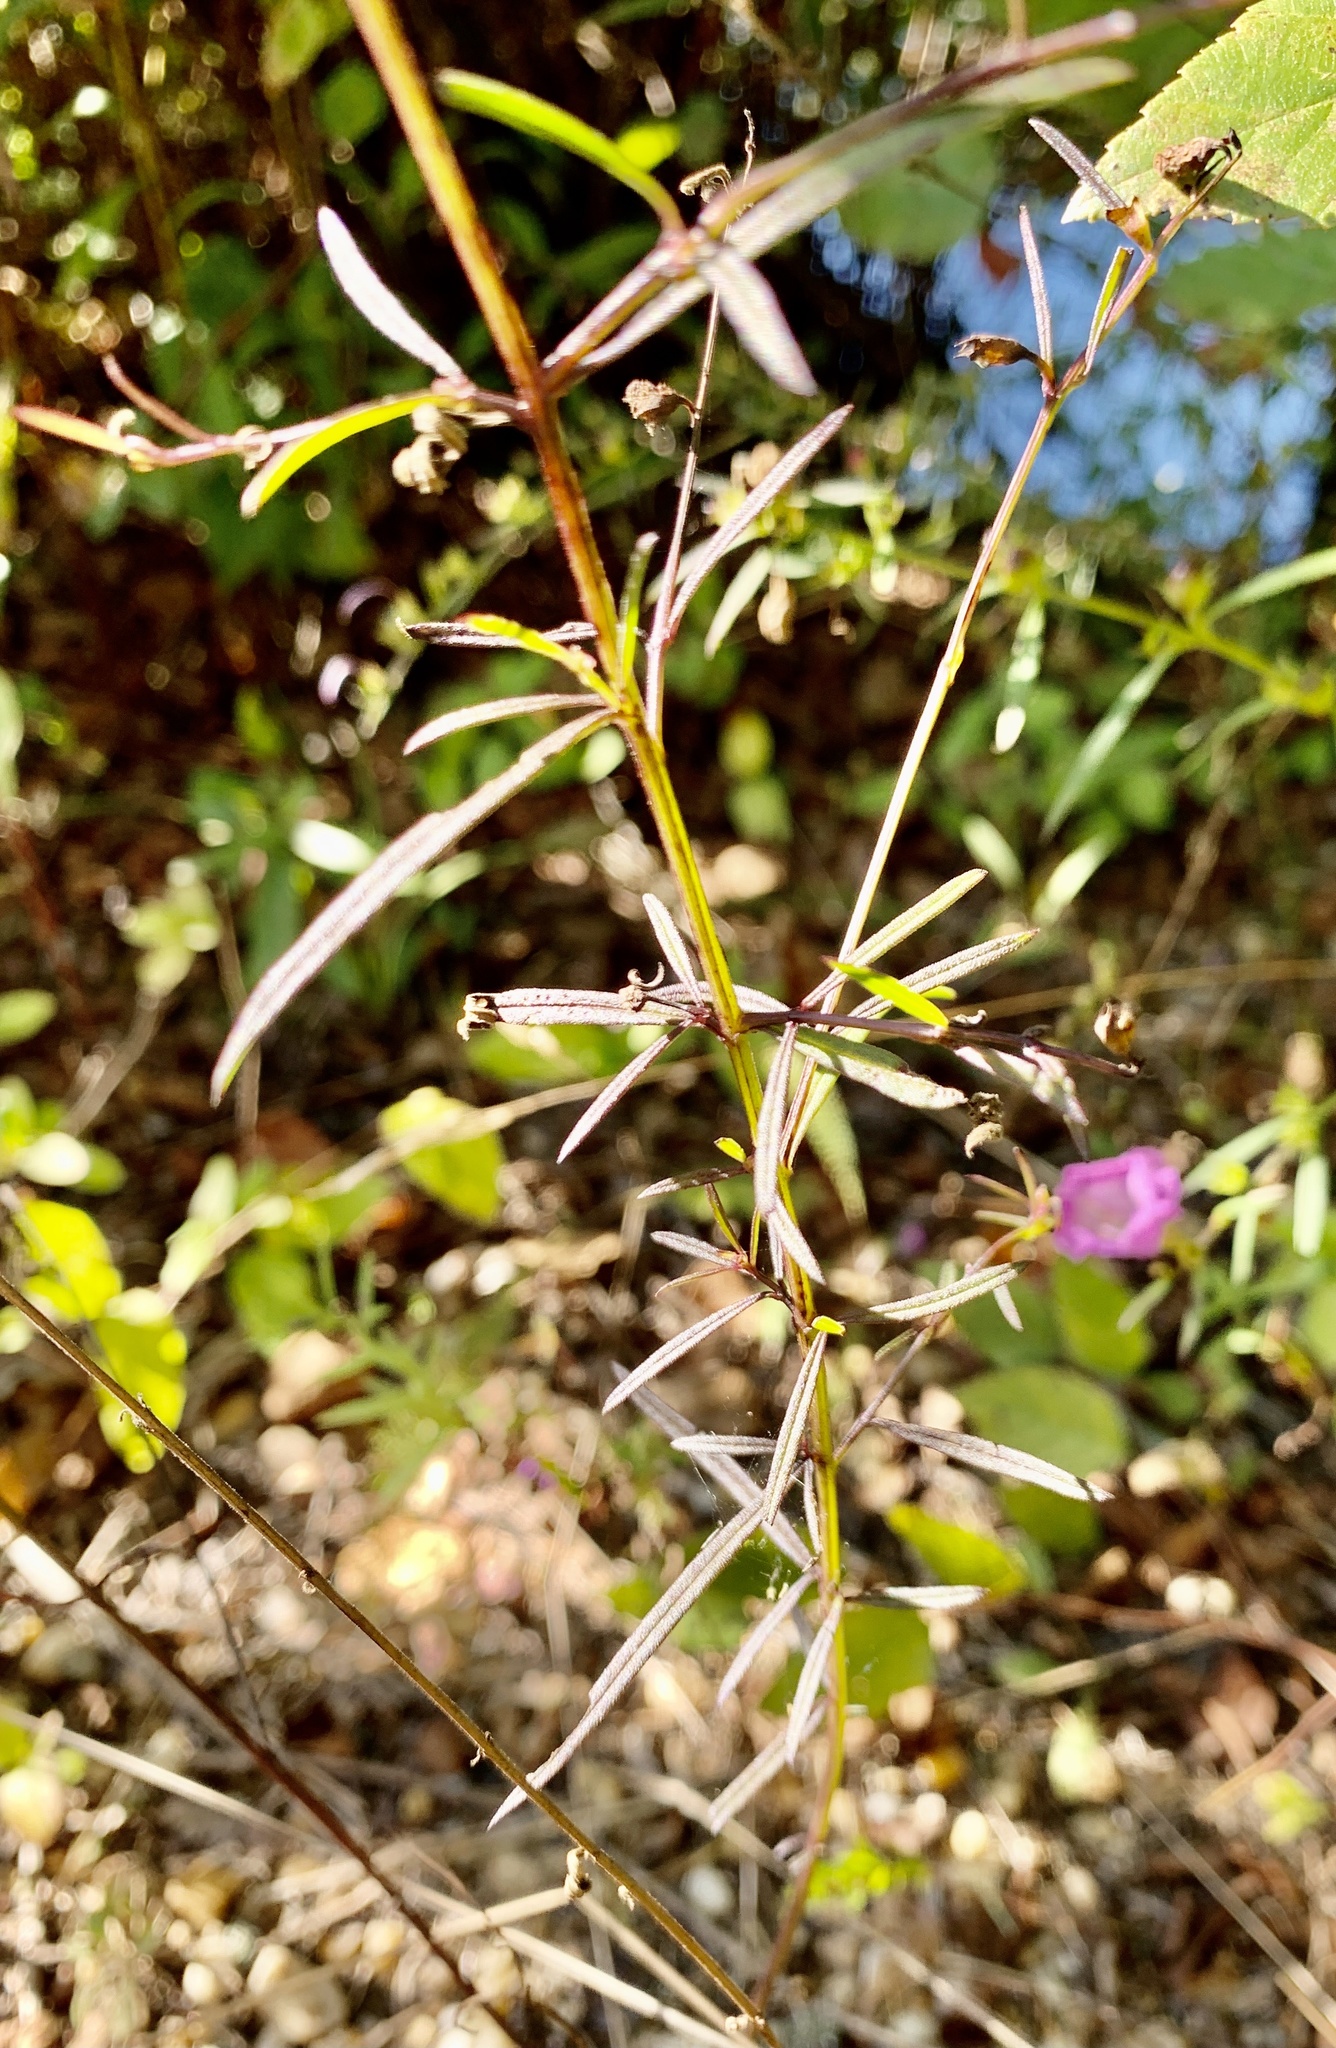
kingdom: Plantae
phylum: Tracheophyta
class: Magnoliopsida
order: Lamiales
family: Orobanchaceae
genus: Agalinis
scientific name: Agalinis purpurea
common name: Purple false foxglove
